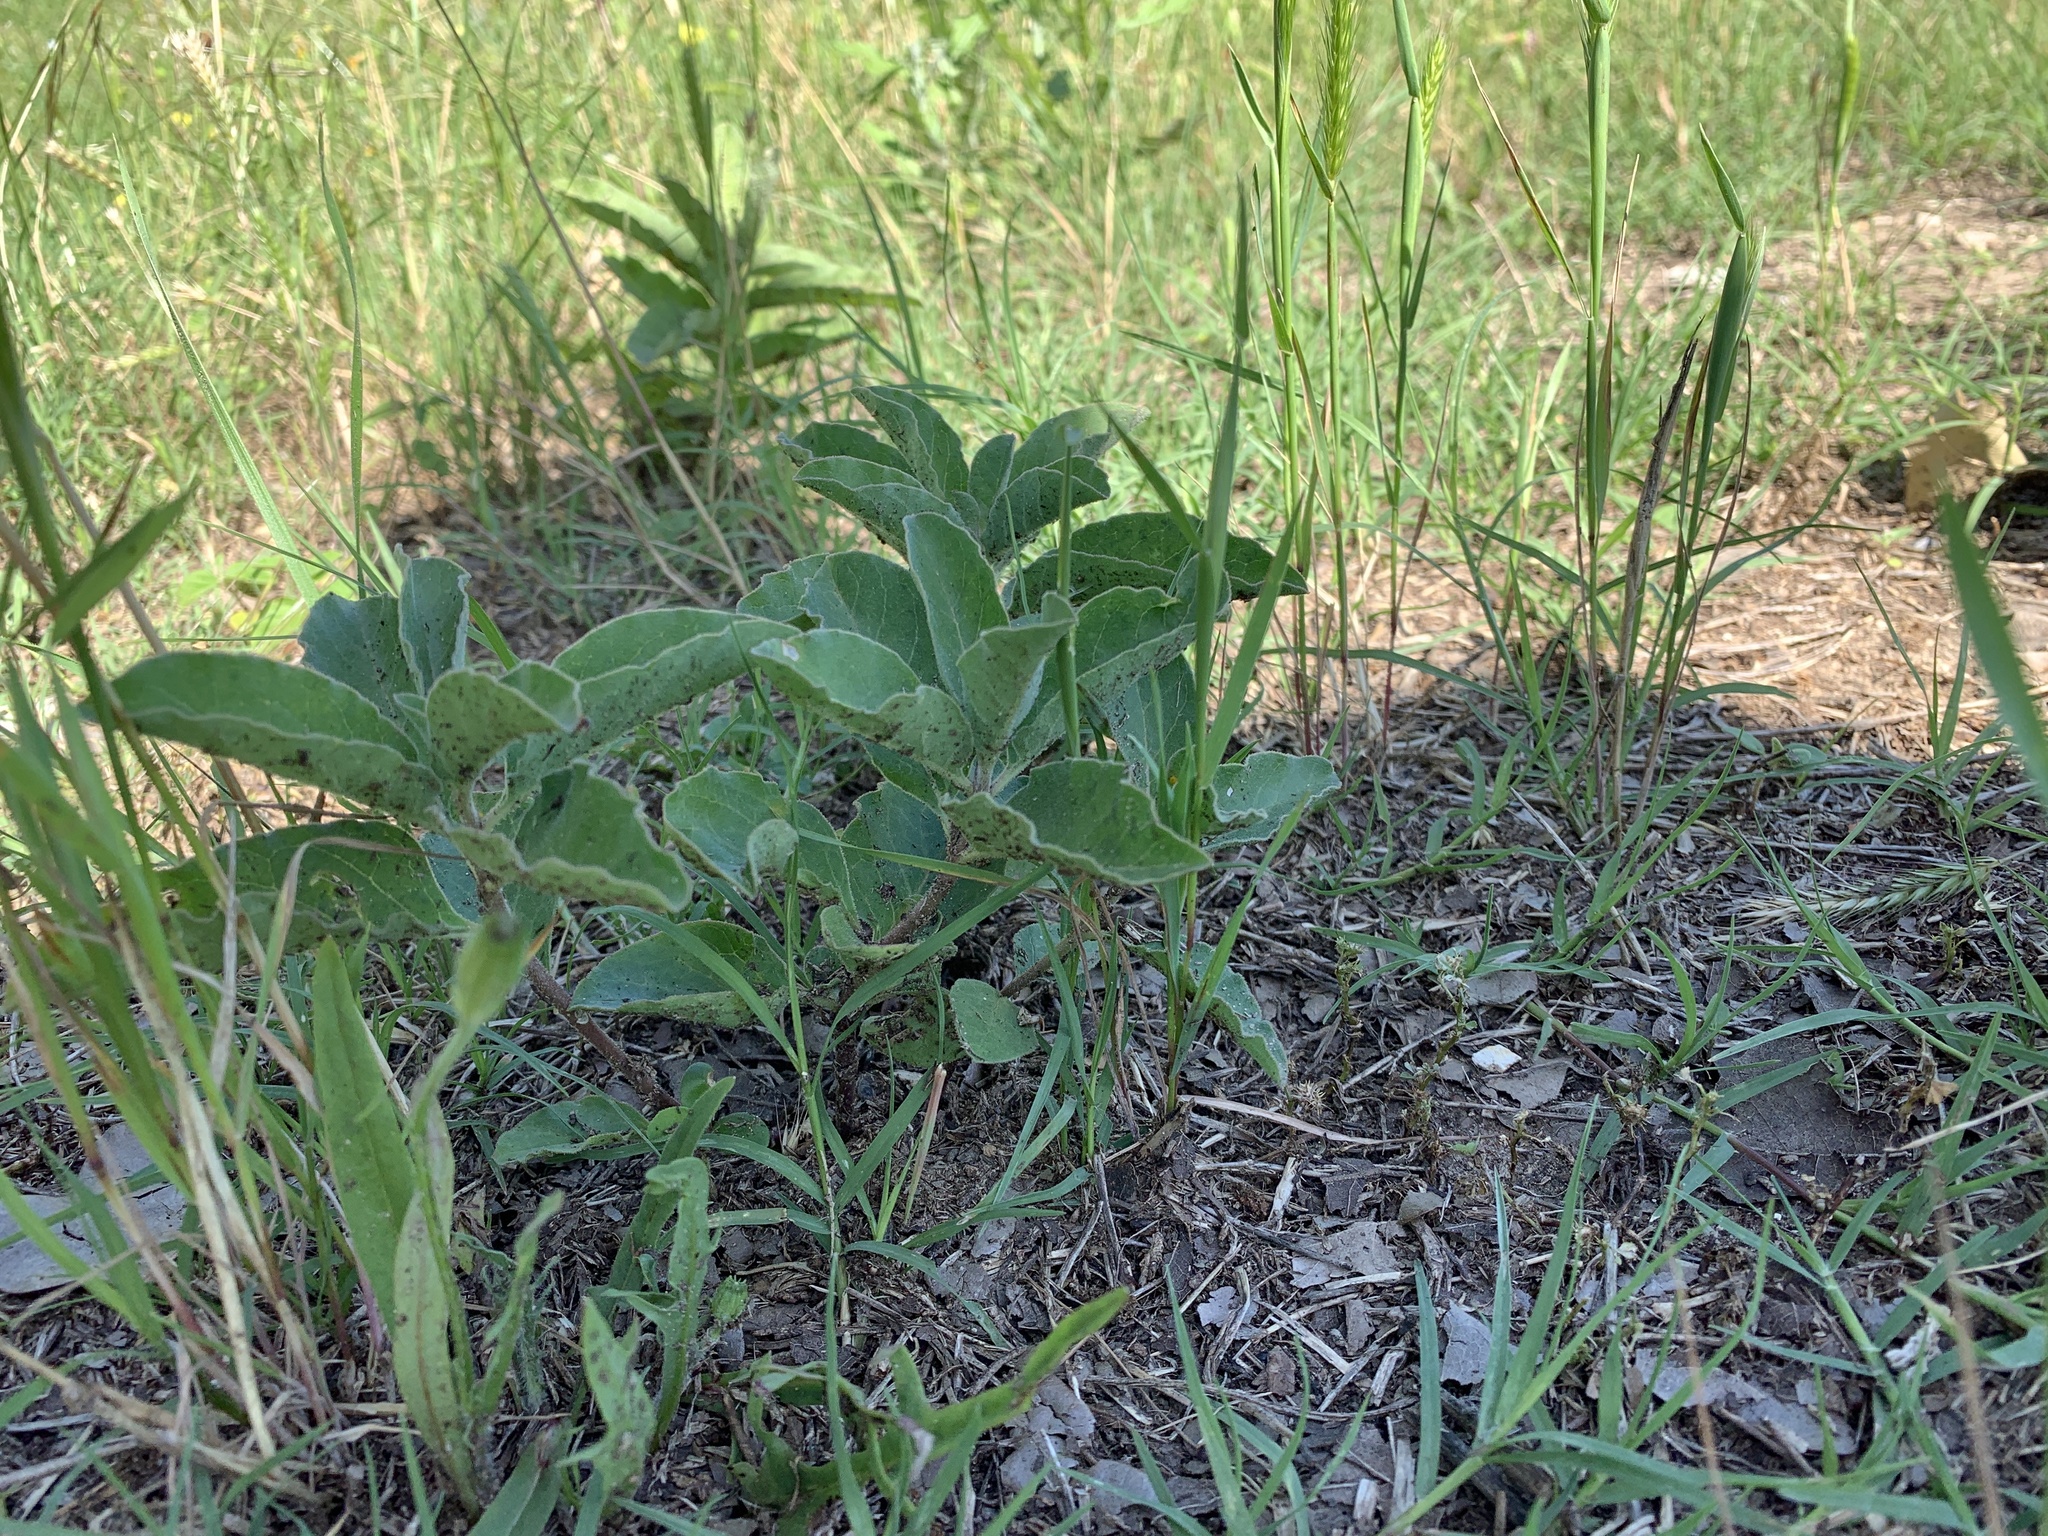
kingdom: Plantae
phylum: Tracheophyta
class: Magnoliopsida
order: Gentianales
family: Apocynaceae
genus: Asclepias
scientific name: Asclepias oenotheroides
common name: Zizotes milkweed
